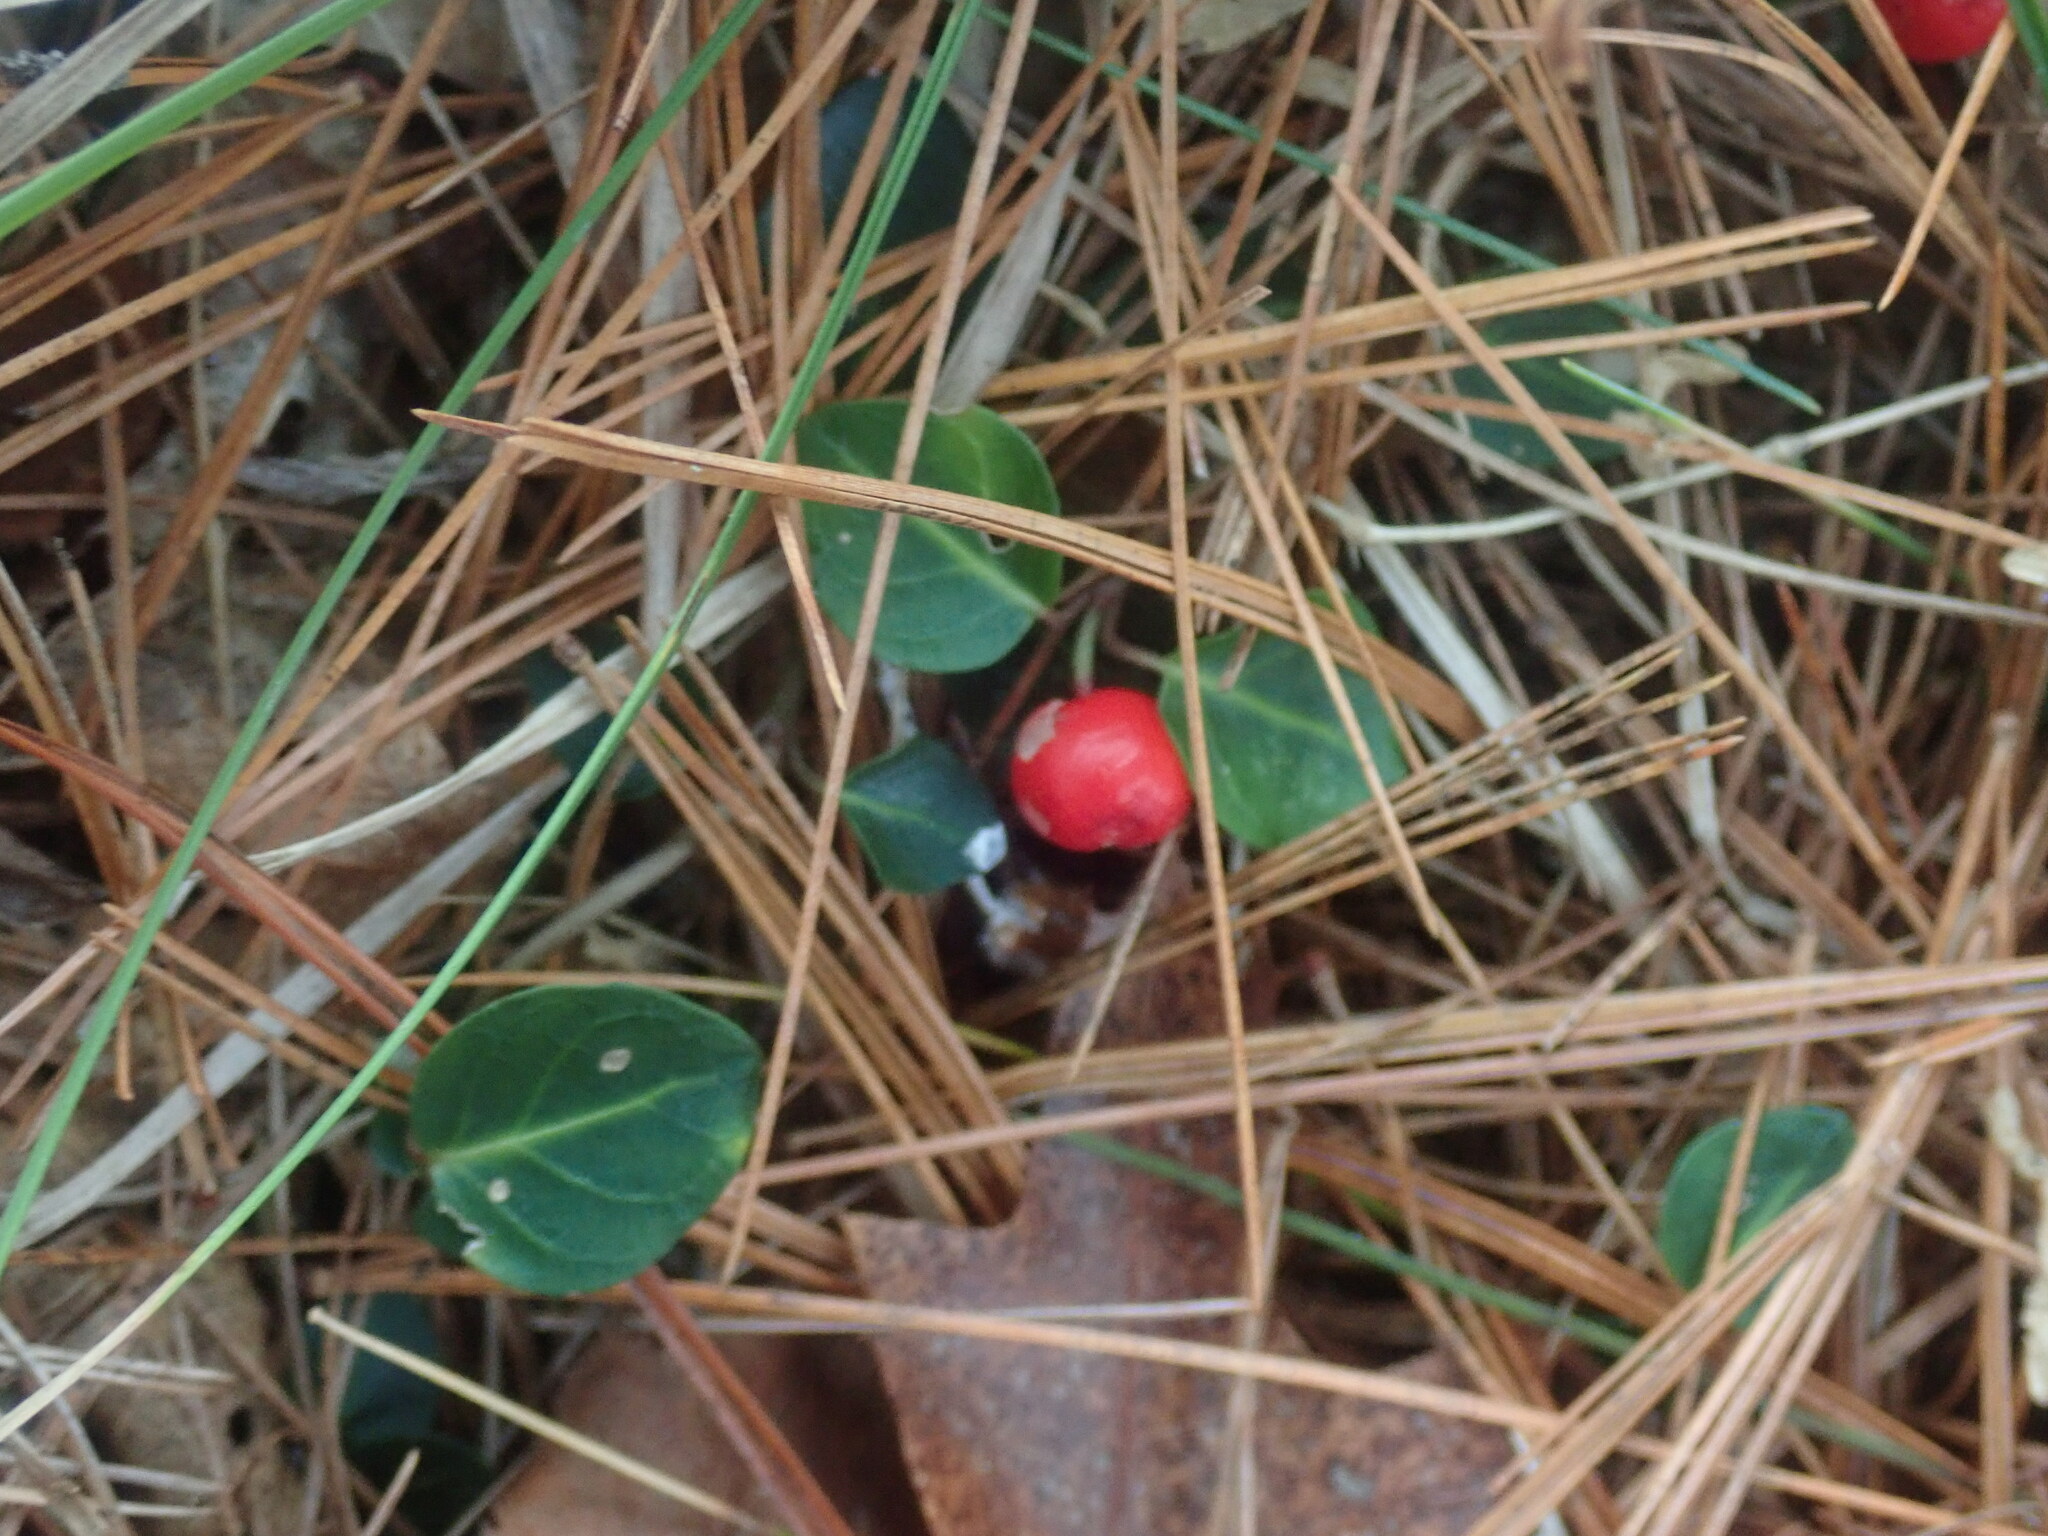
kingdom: Plantae
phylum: Tracheophyta
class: Magnoliopsida
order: Gentianales
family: Rubiaceae
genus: Mitchella
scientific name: Mitchella repens
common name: Partridge-berry
